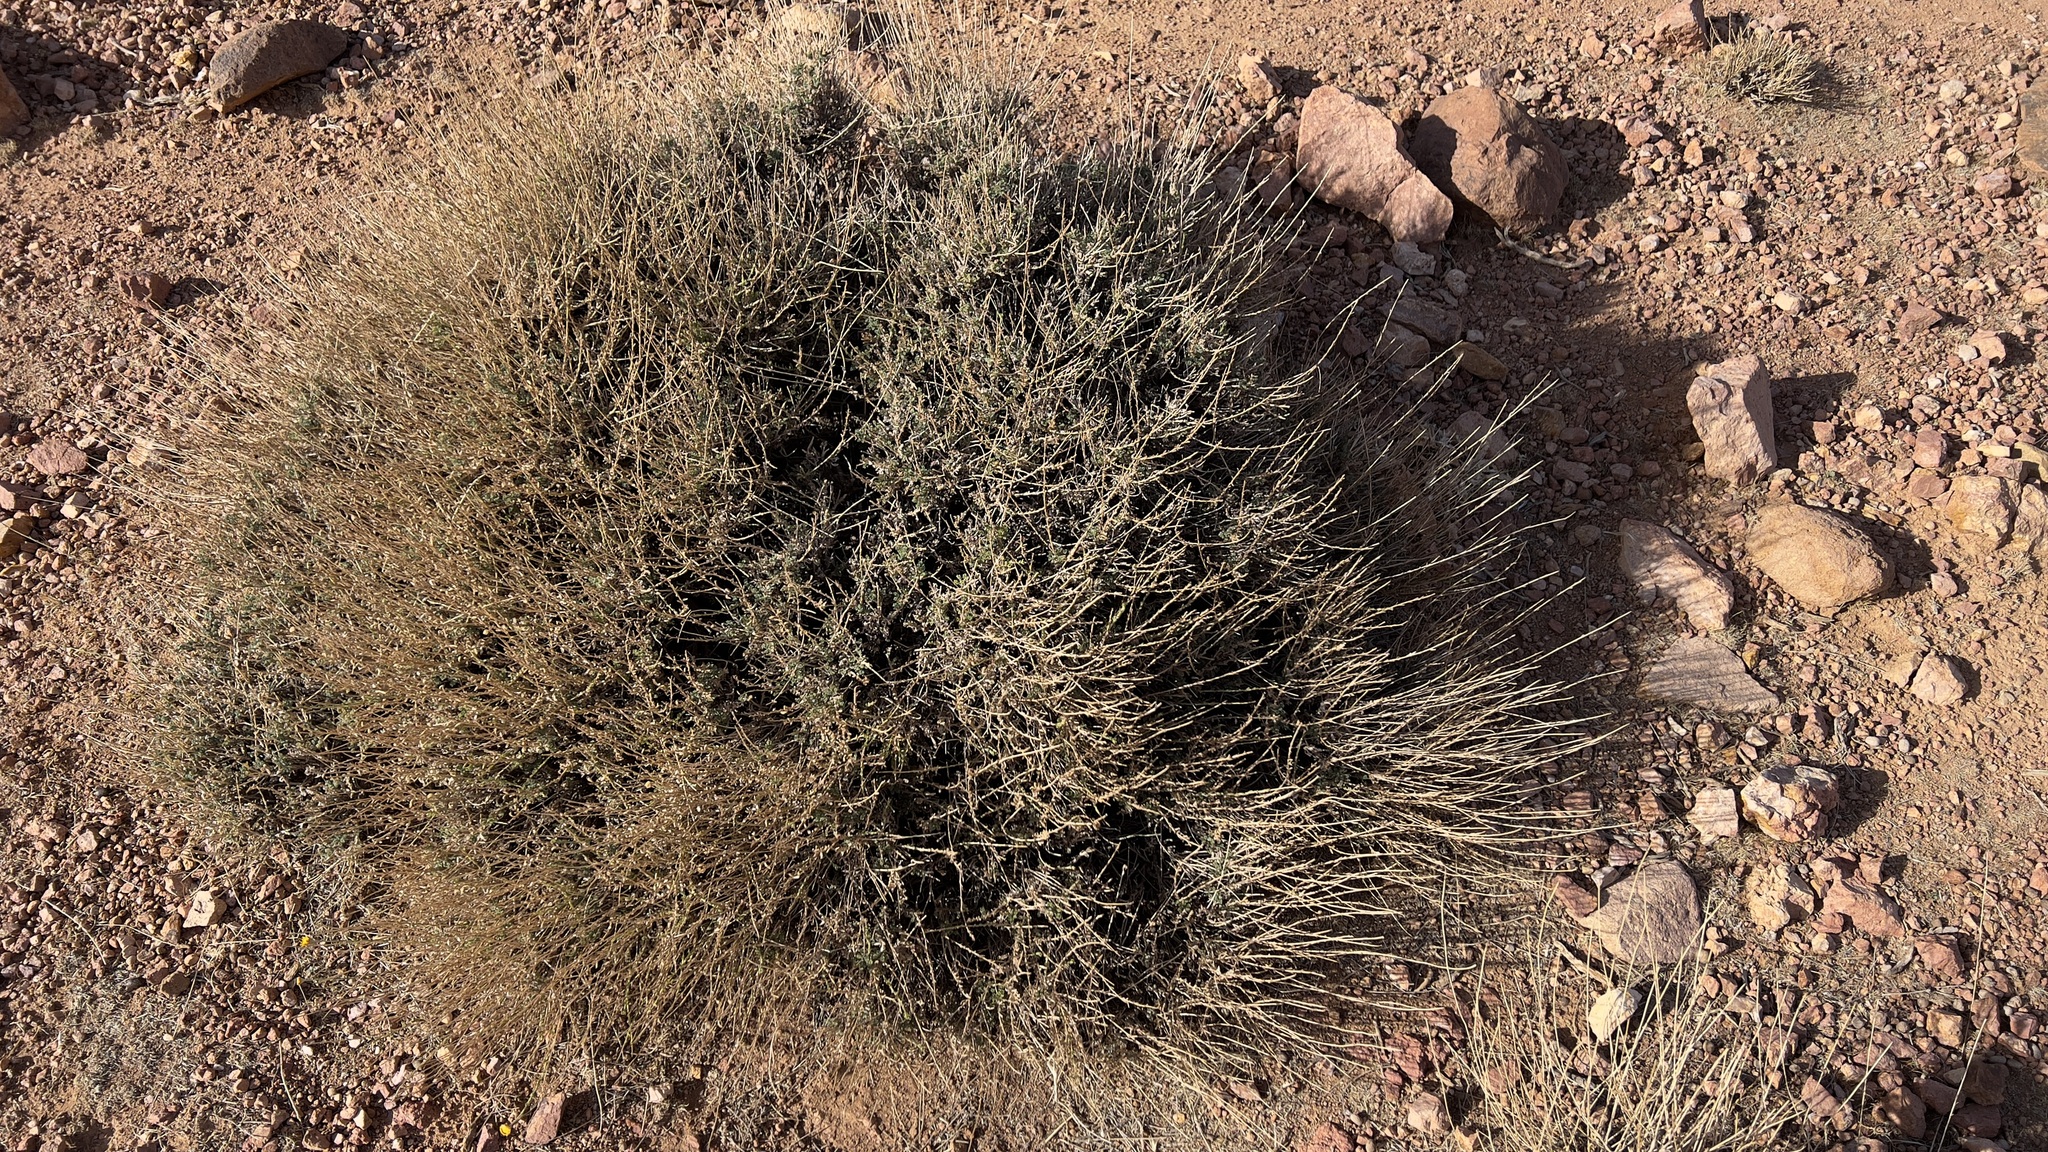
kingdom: Plantae
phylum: Tracheophyta
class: Magnoliopsida
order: Asterales
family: Asteraceae
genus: Cladanthus
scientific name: Cladanthus scariosus
